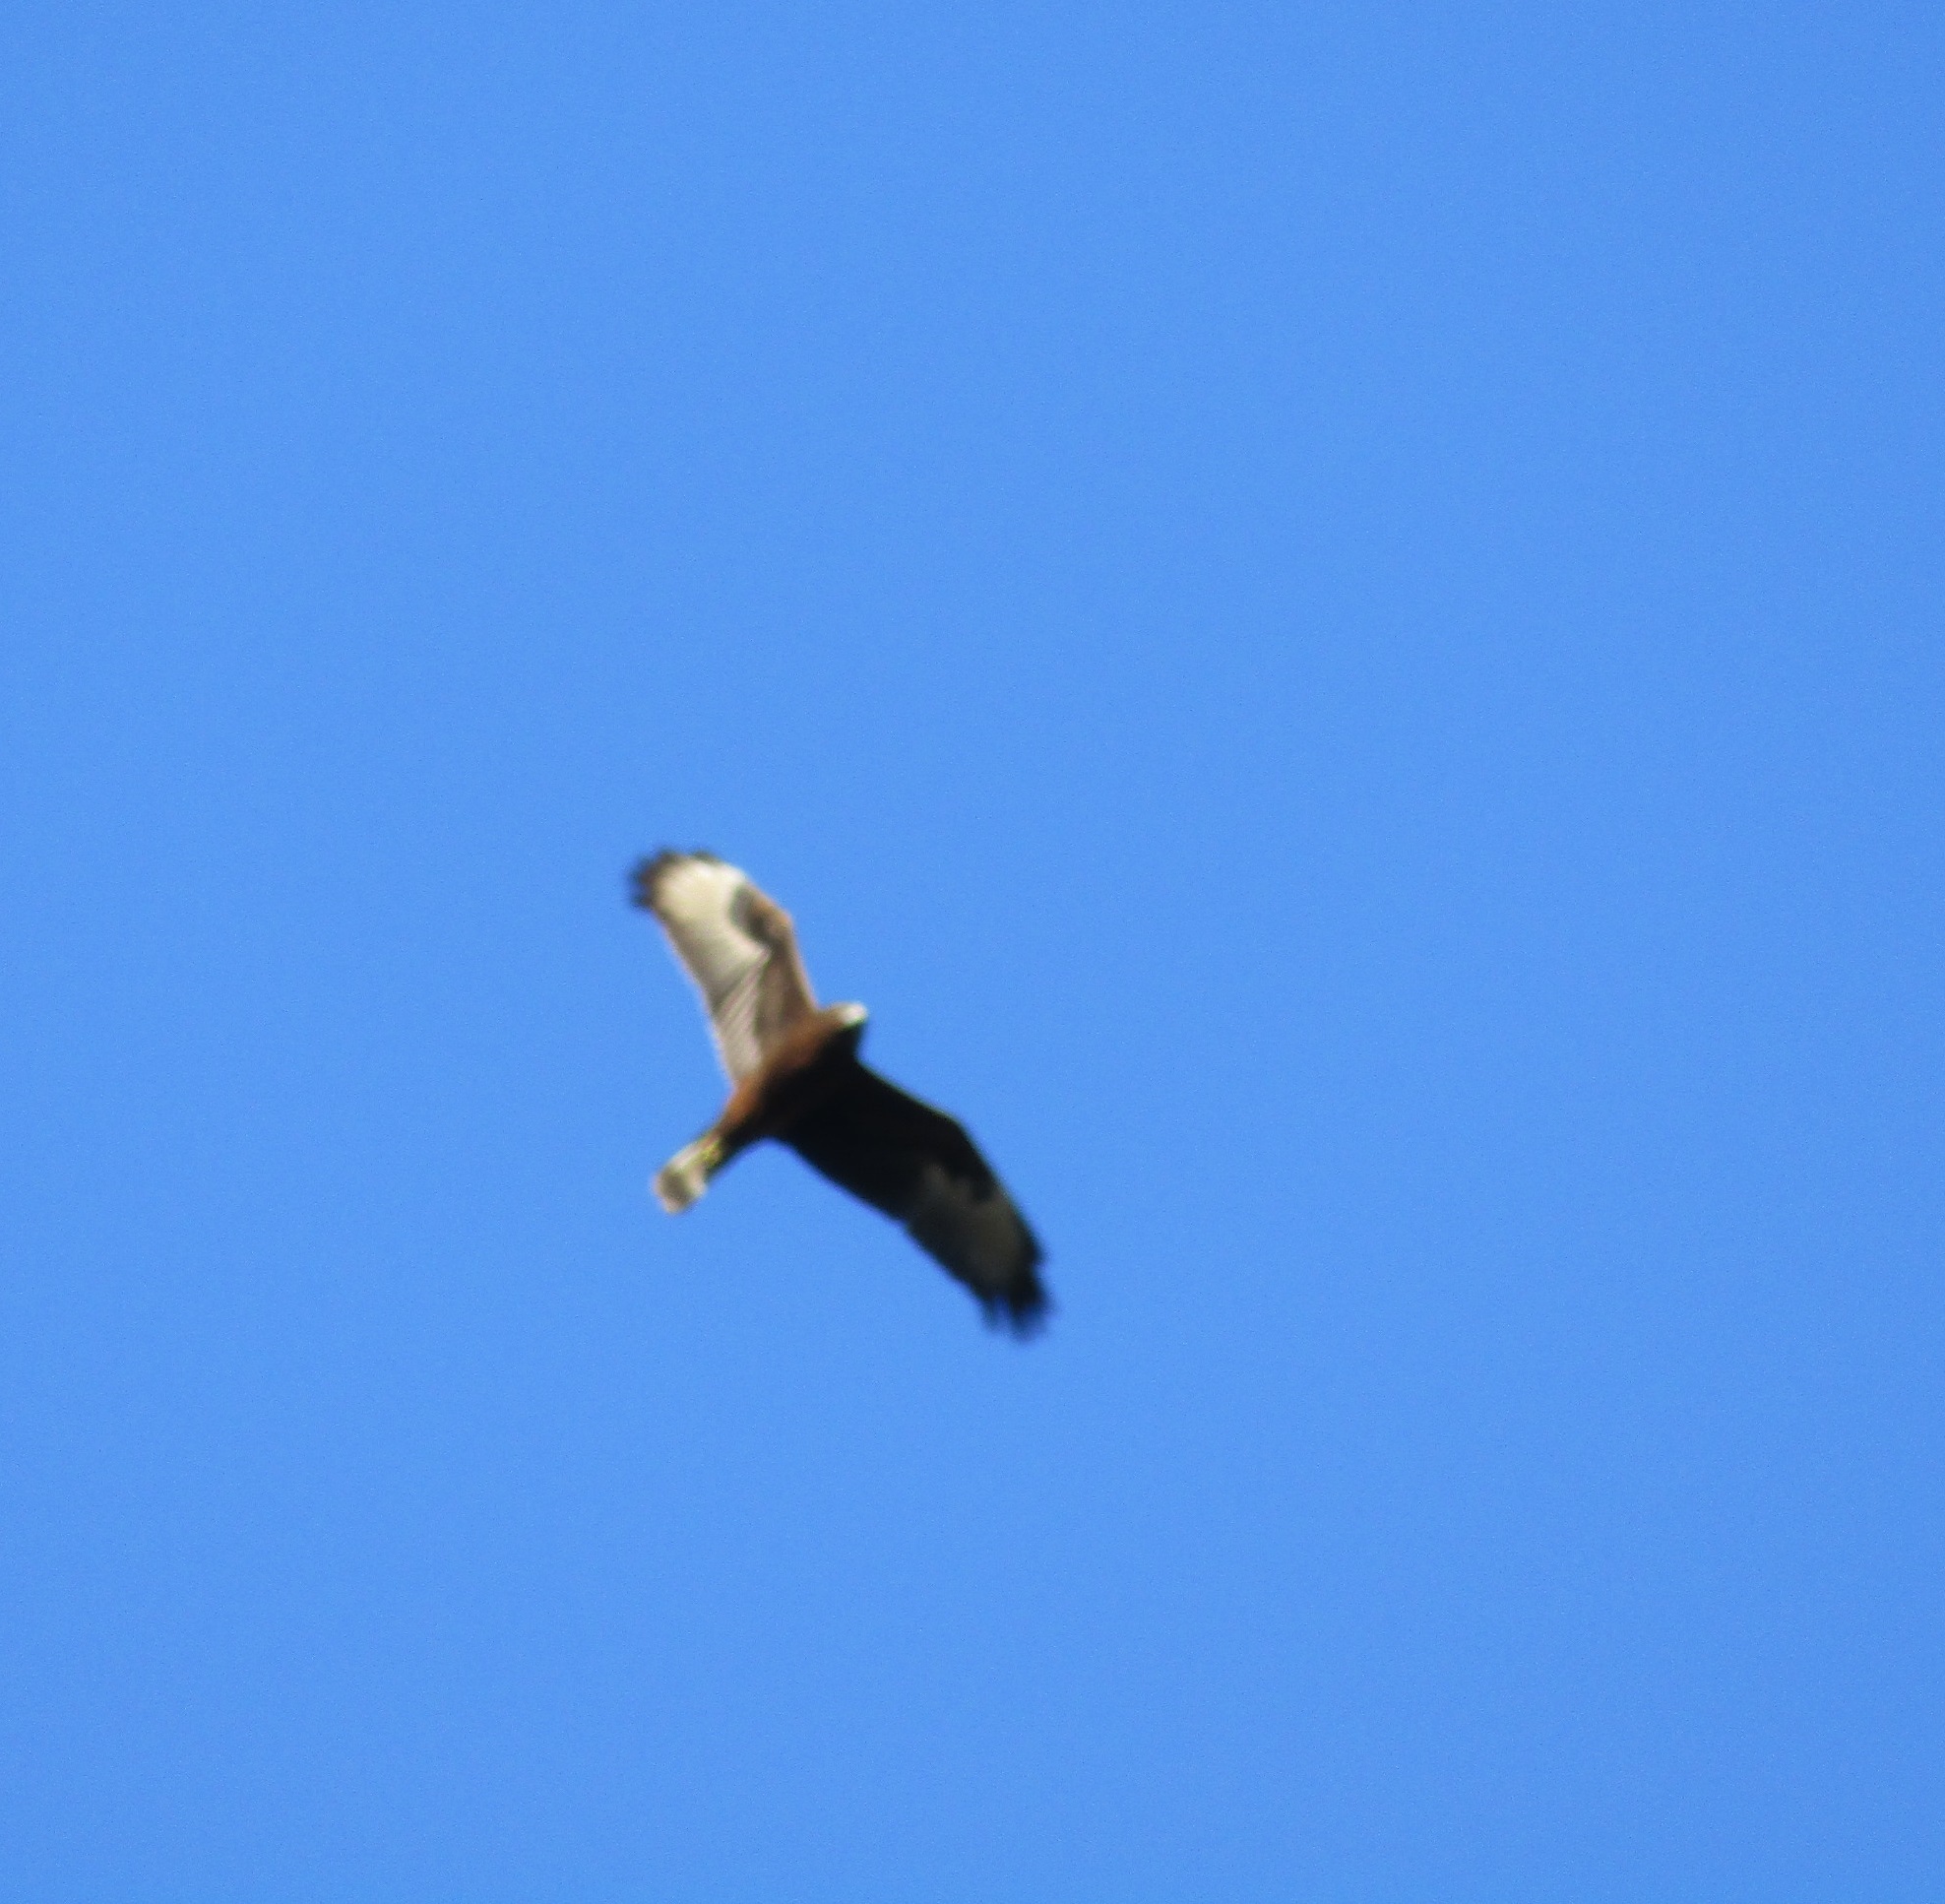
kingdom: Animalia
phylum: Chordata
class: Aves
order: Accipitriformes
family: Accipitridae
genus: Circus
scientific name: Circus approximans
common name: Swamp harrier
